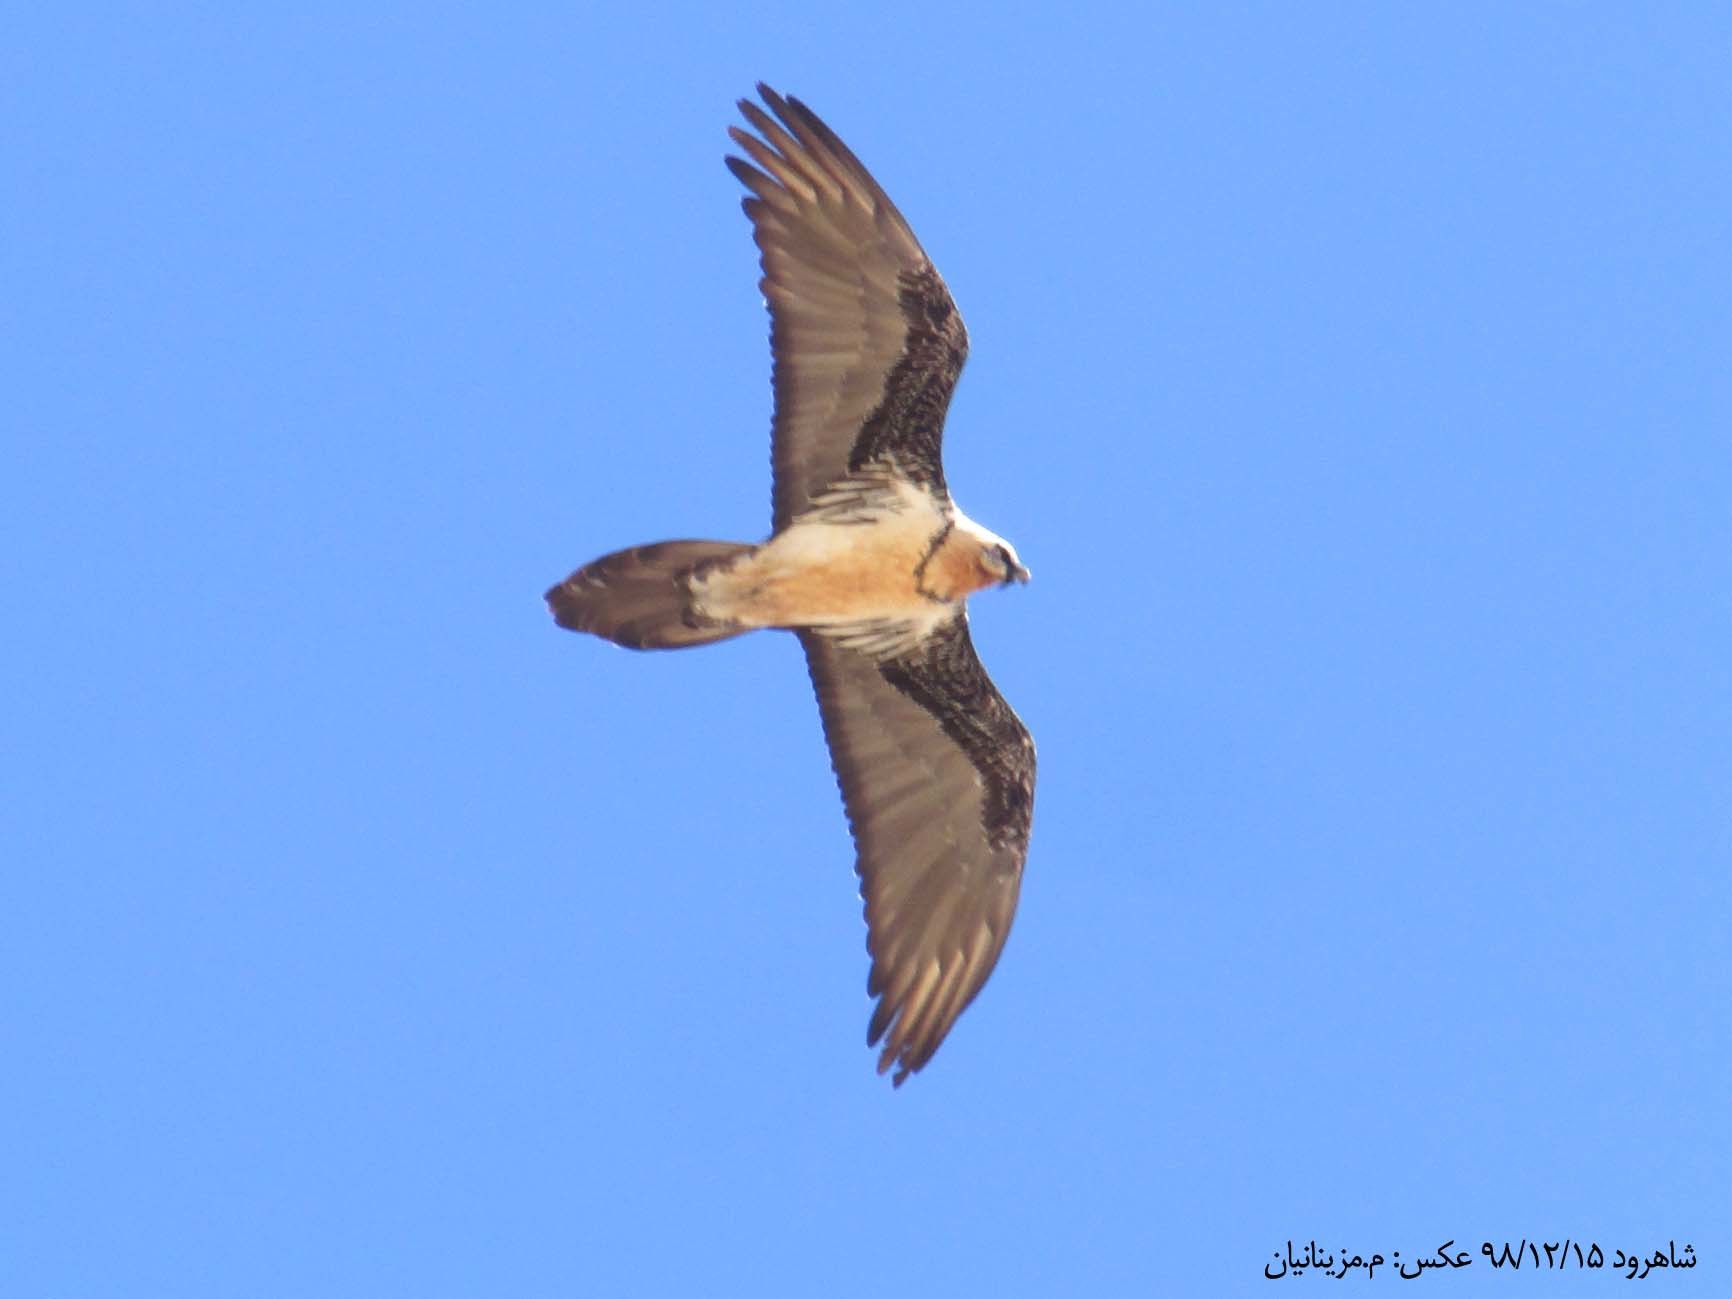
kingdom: Animalia
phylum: Chordata
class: Aves
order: Accipitriformes
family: Accipitridae
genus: Gypaetus
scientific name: Gypaetus barbatus
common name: Bearded vulture
